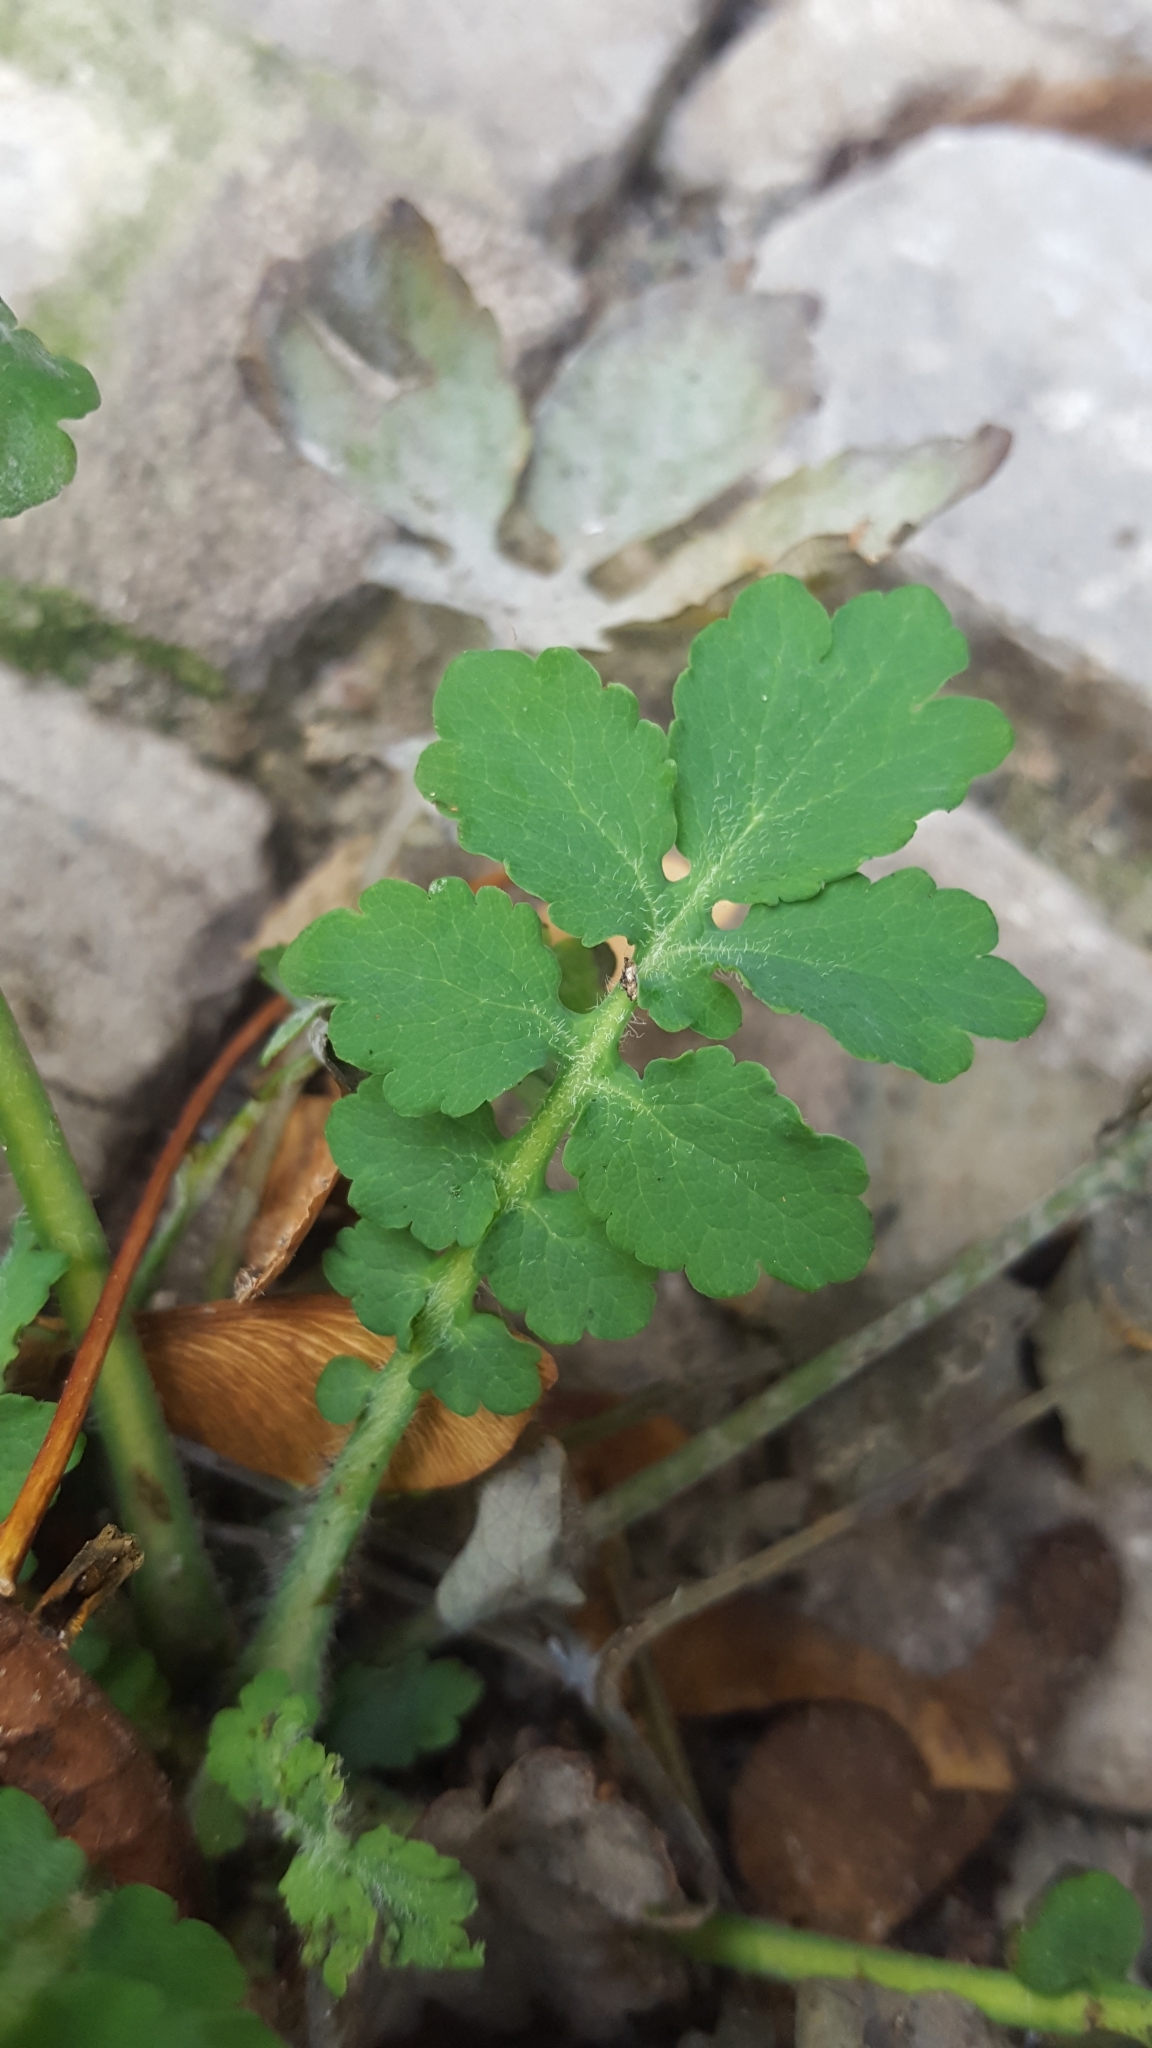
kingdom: Plantae
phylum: Tracheophyta
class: Magnoliopsida
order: Ranunculales
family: Papaveraceae
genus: Chelidonium
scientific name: Chelidonium majus
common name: Greater celandine
